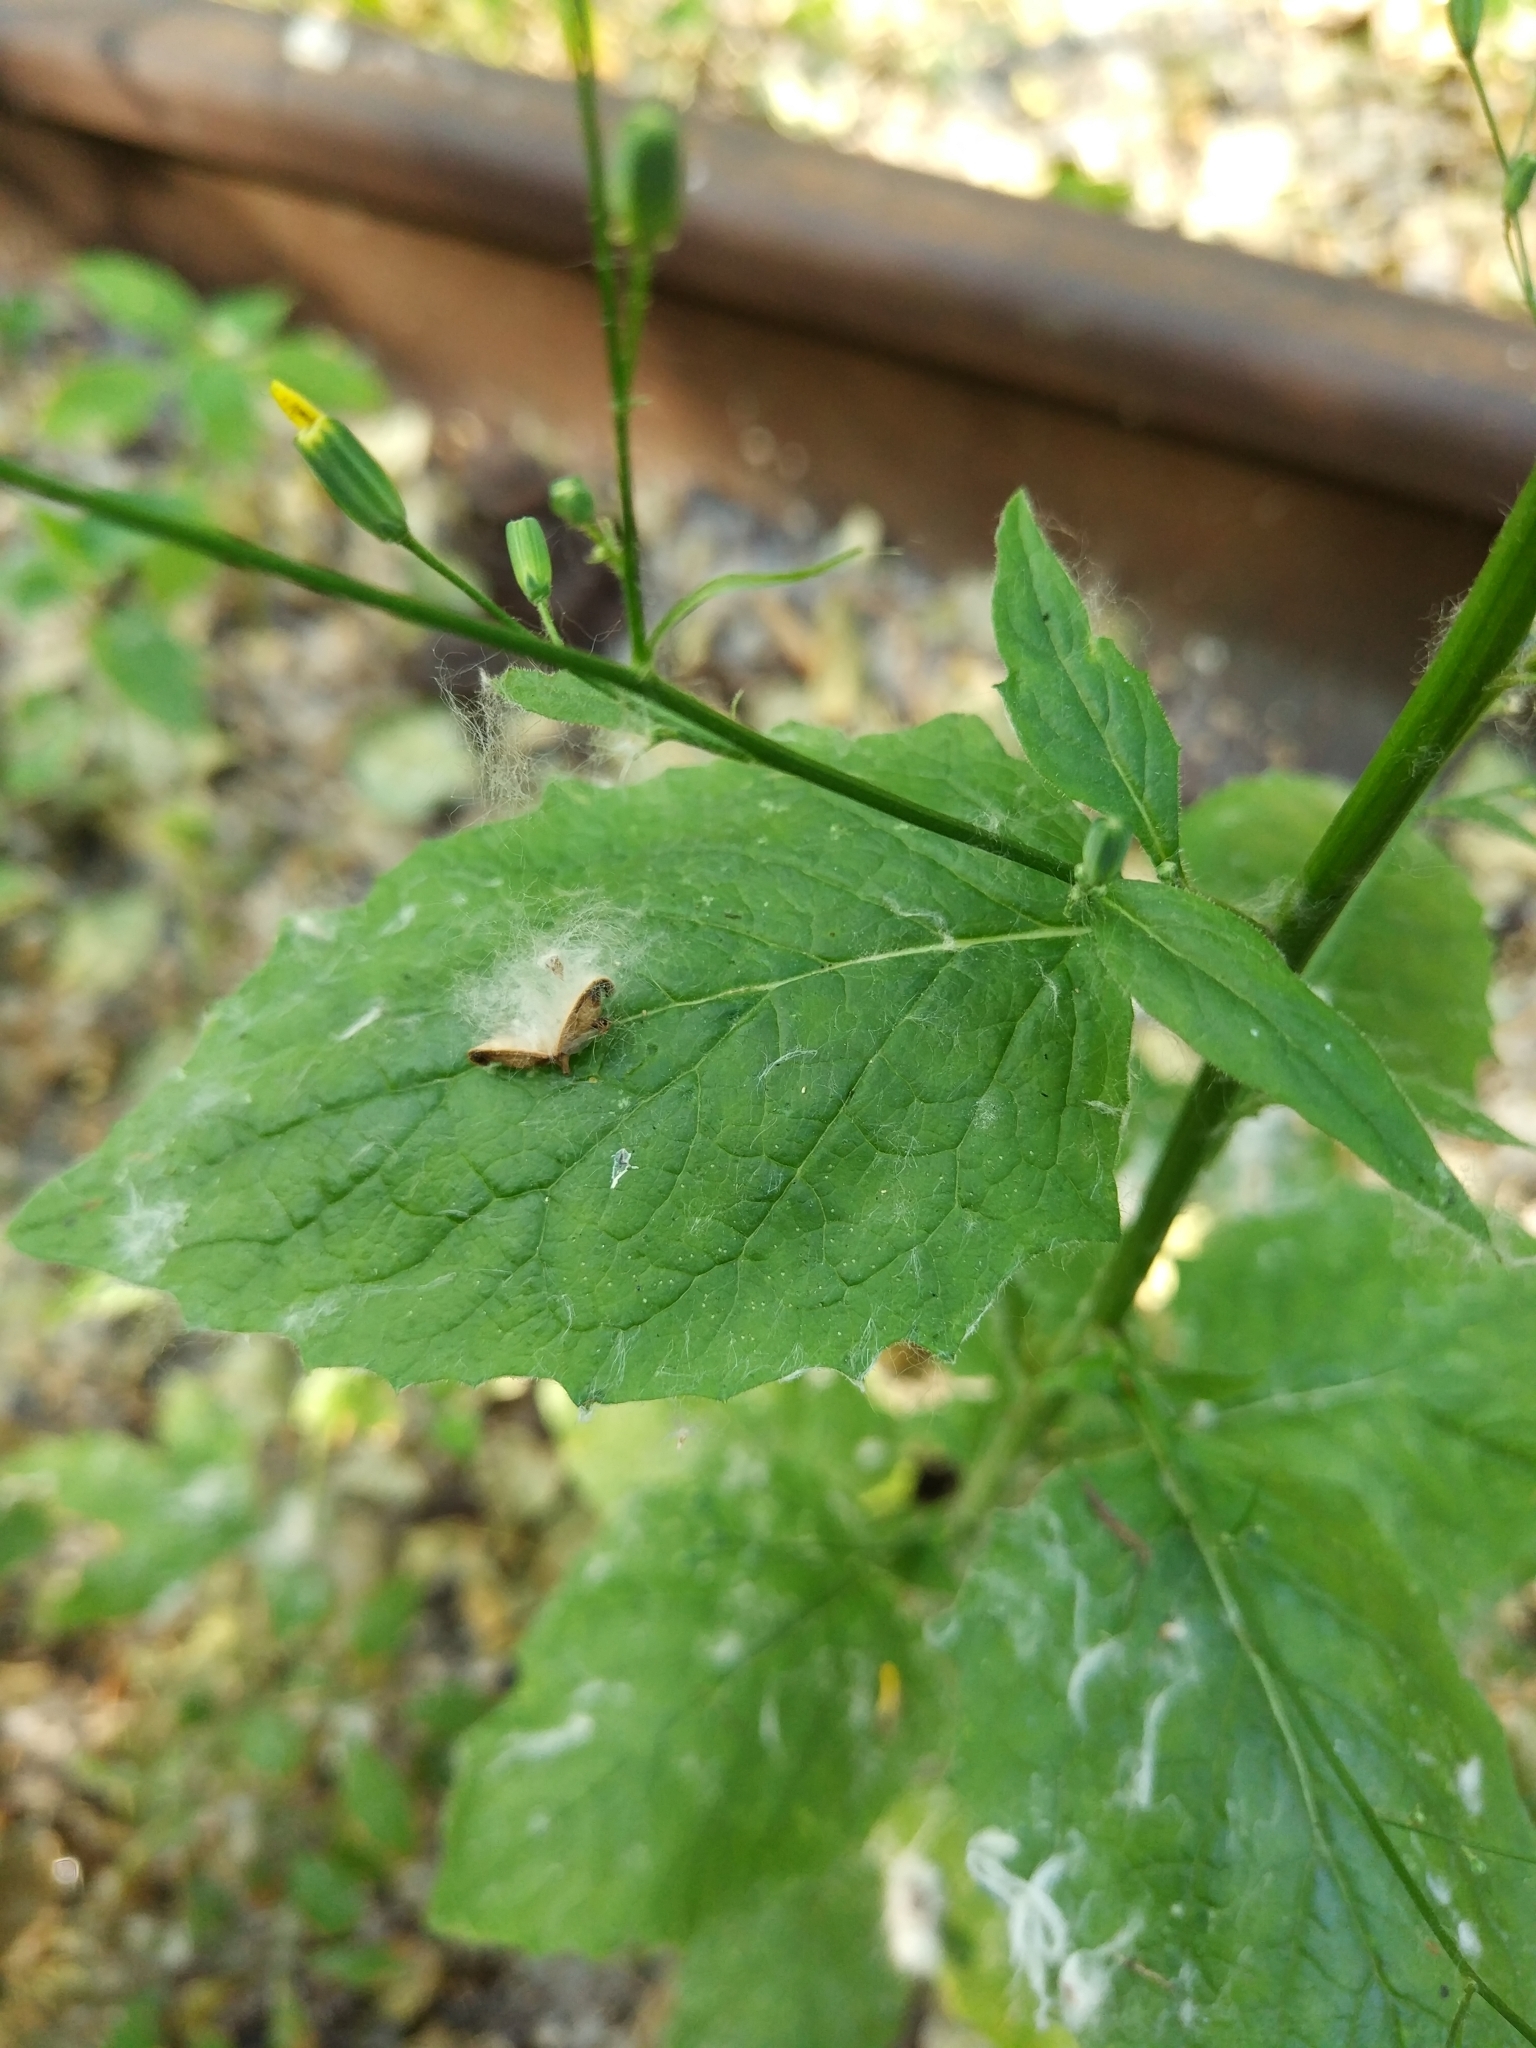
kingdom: Plantae
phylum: Tracheophyta
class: Magnoliopsida
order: Asterales
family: Asteraceae
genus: Lapsana
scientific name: Lapsana communis
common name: Nipplewort
